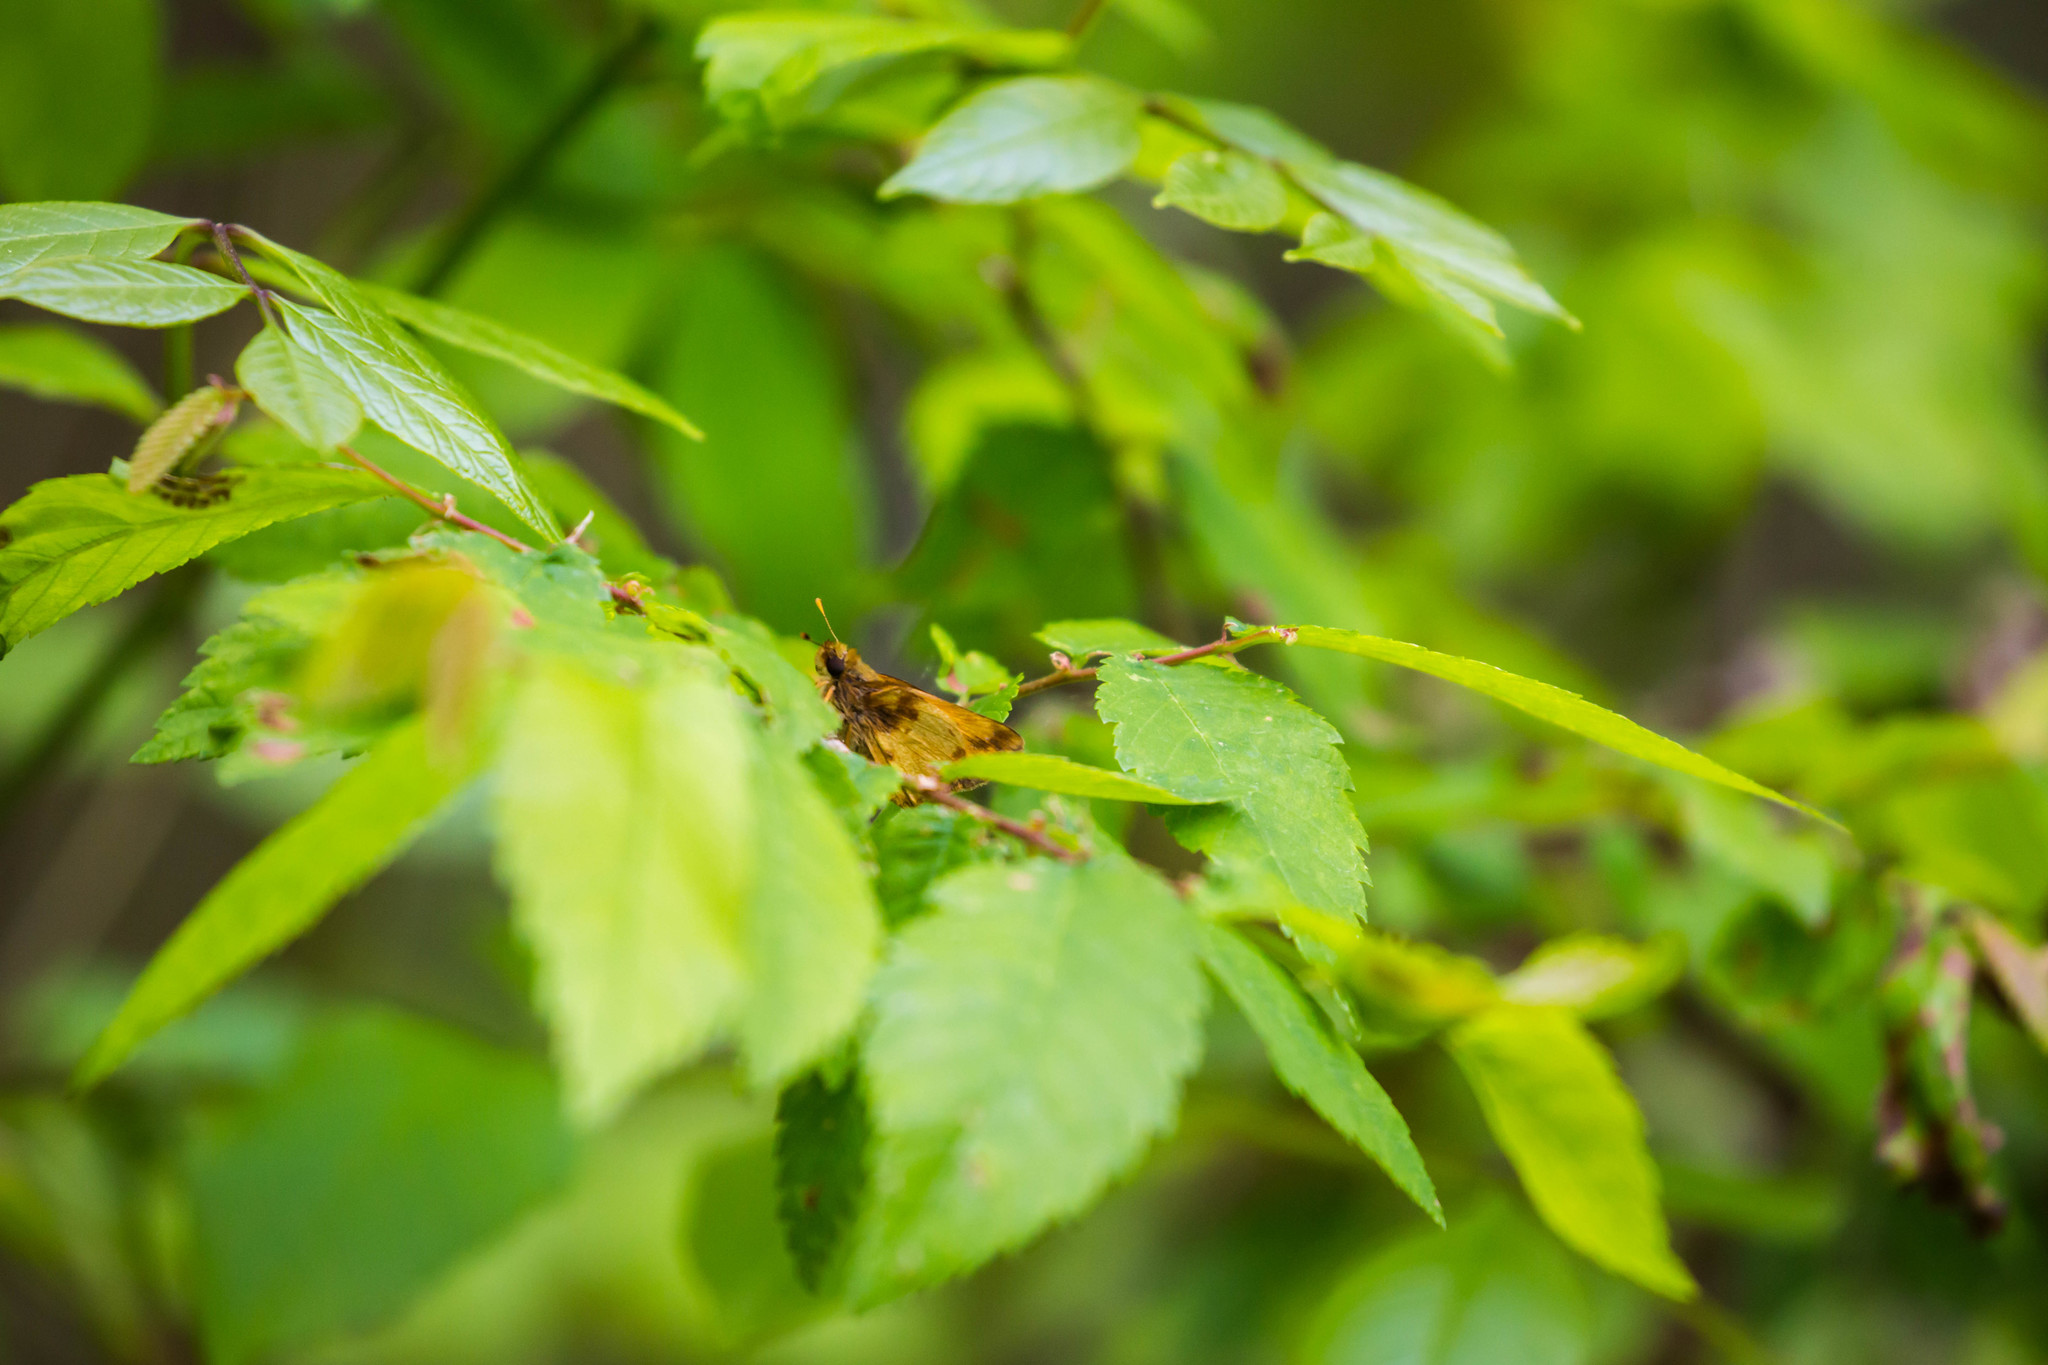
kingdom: Animalia
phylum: Arthropoda
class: Insecta
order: Lepidoptera
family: Hesperiidae
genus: Lon
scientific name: Lon zabulon
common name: Zabulon skipper
